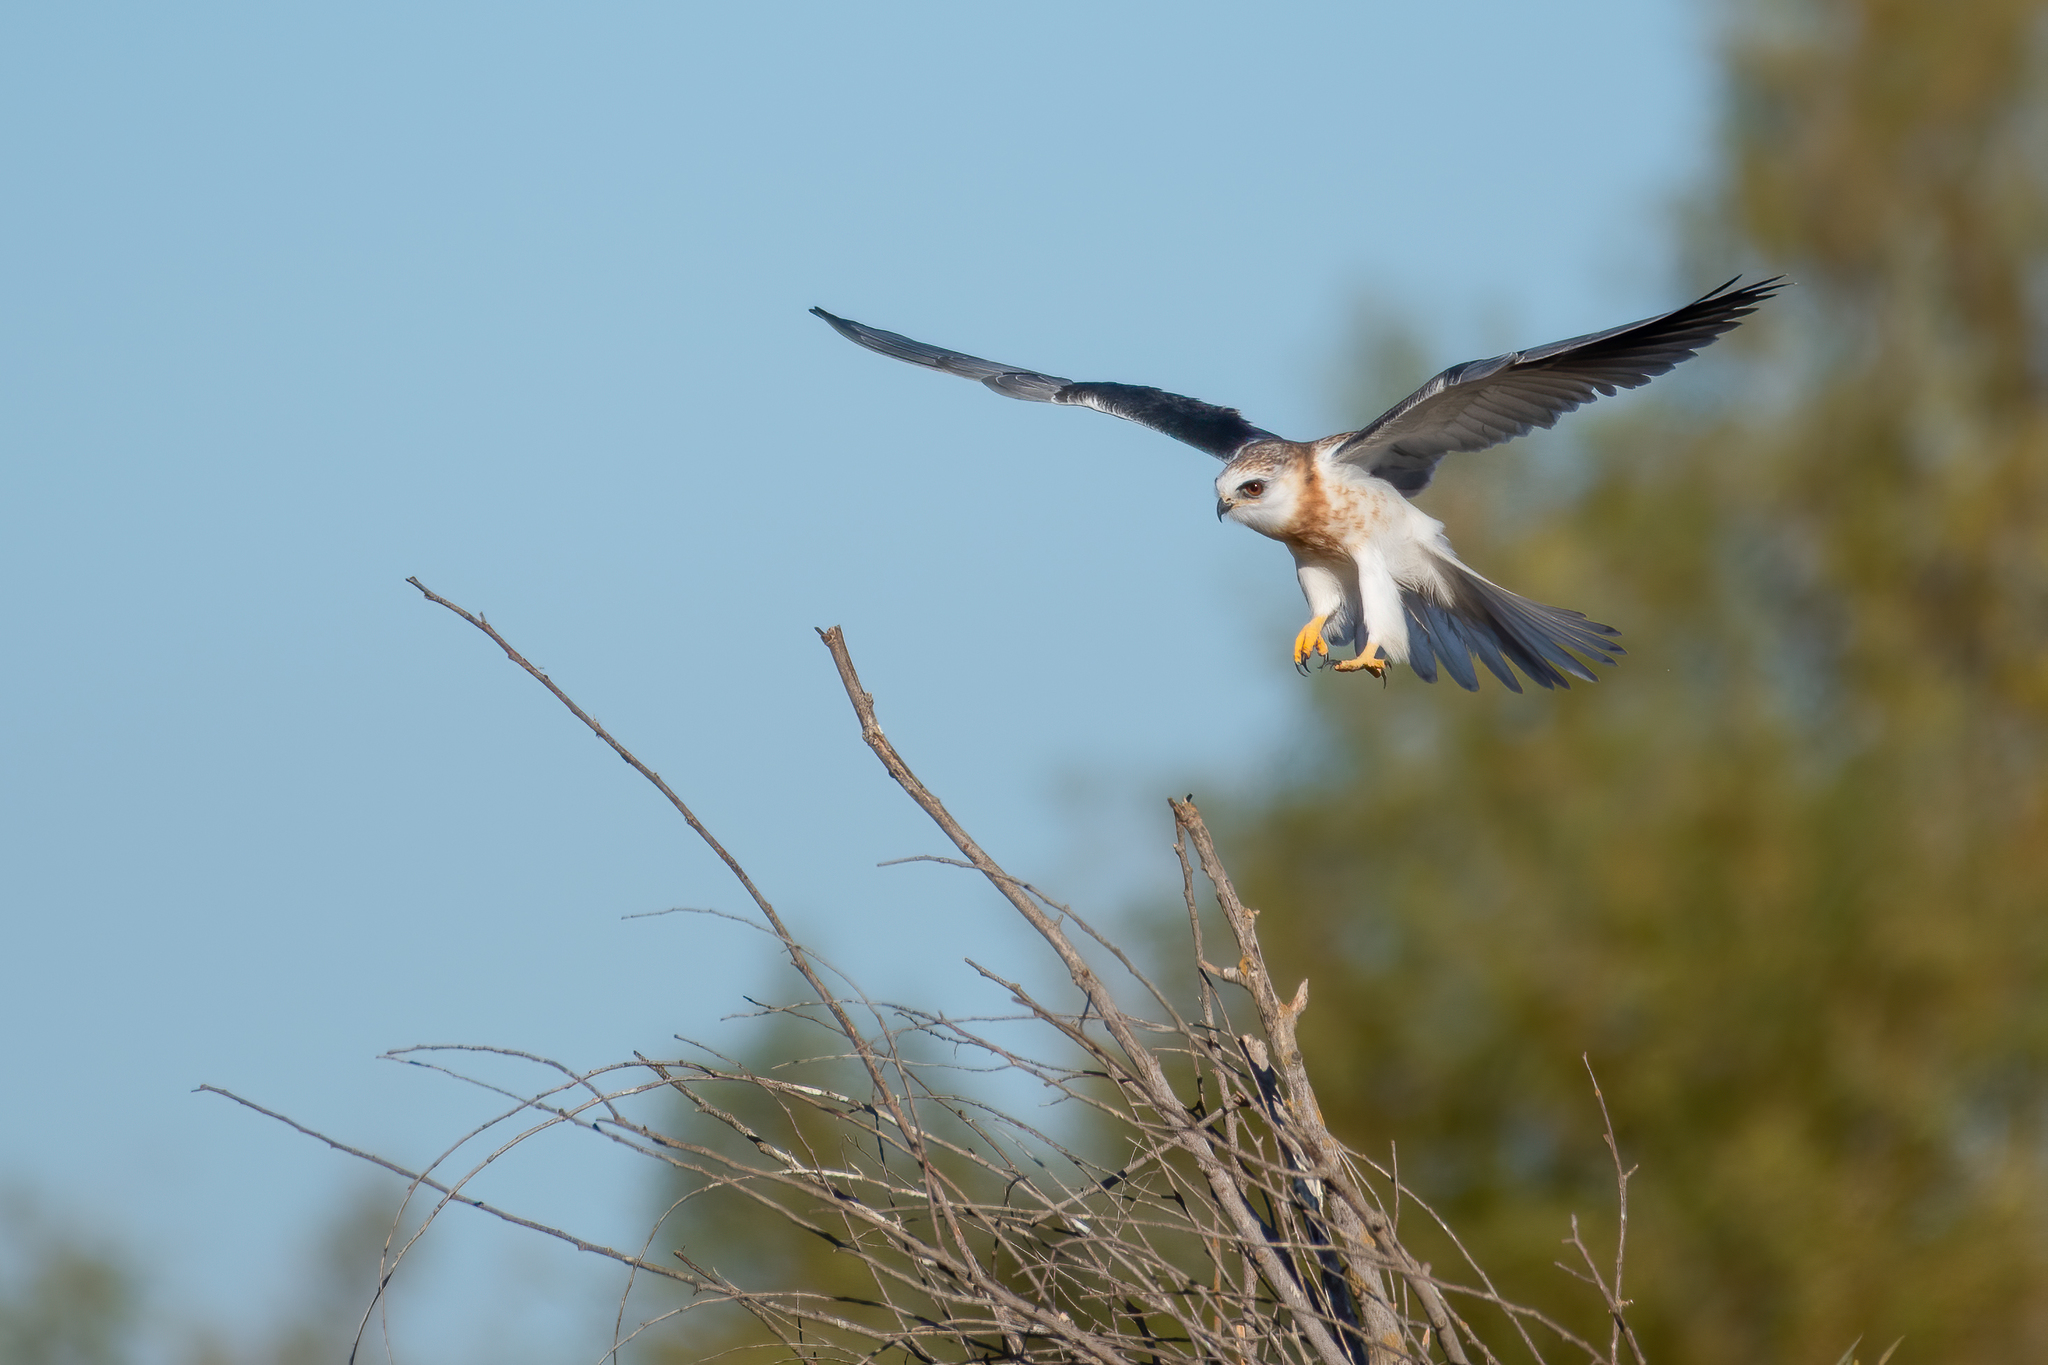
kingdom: Animalia
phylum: Chordata
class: Aves
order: Accipitriformes
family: Accipitridae
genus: Elanus
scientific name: Elanus leucurus
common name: White-tailed kite
